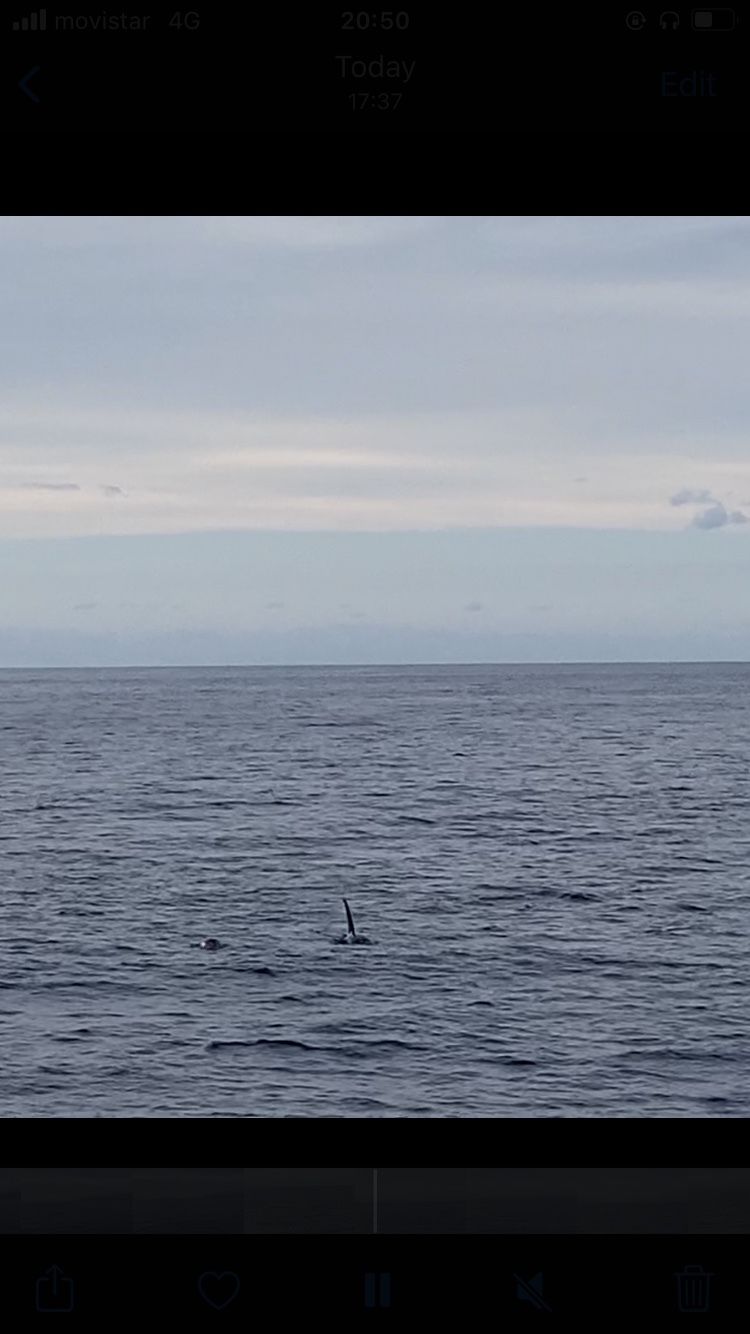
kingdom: Animalia
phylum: Chordata
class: Mammalia
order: Cetacea
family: Delphinidae
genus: Orcinus
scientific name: Orcinus orca
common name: Killer whale
